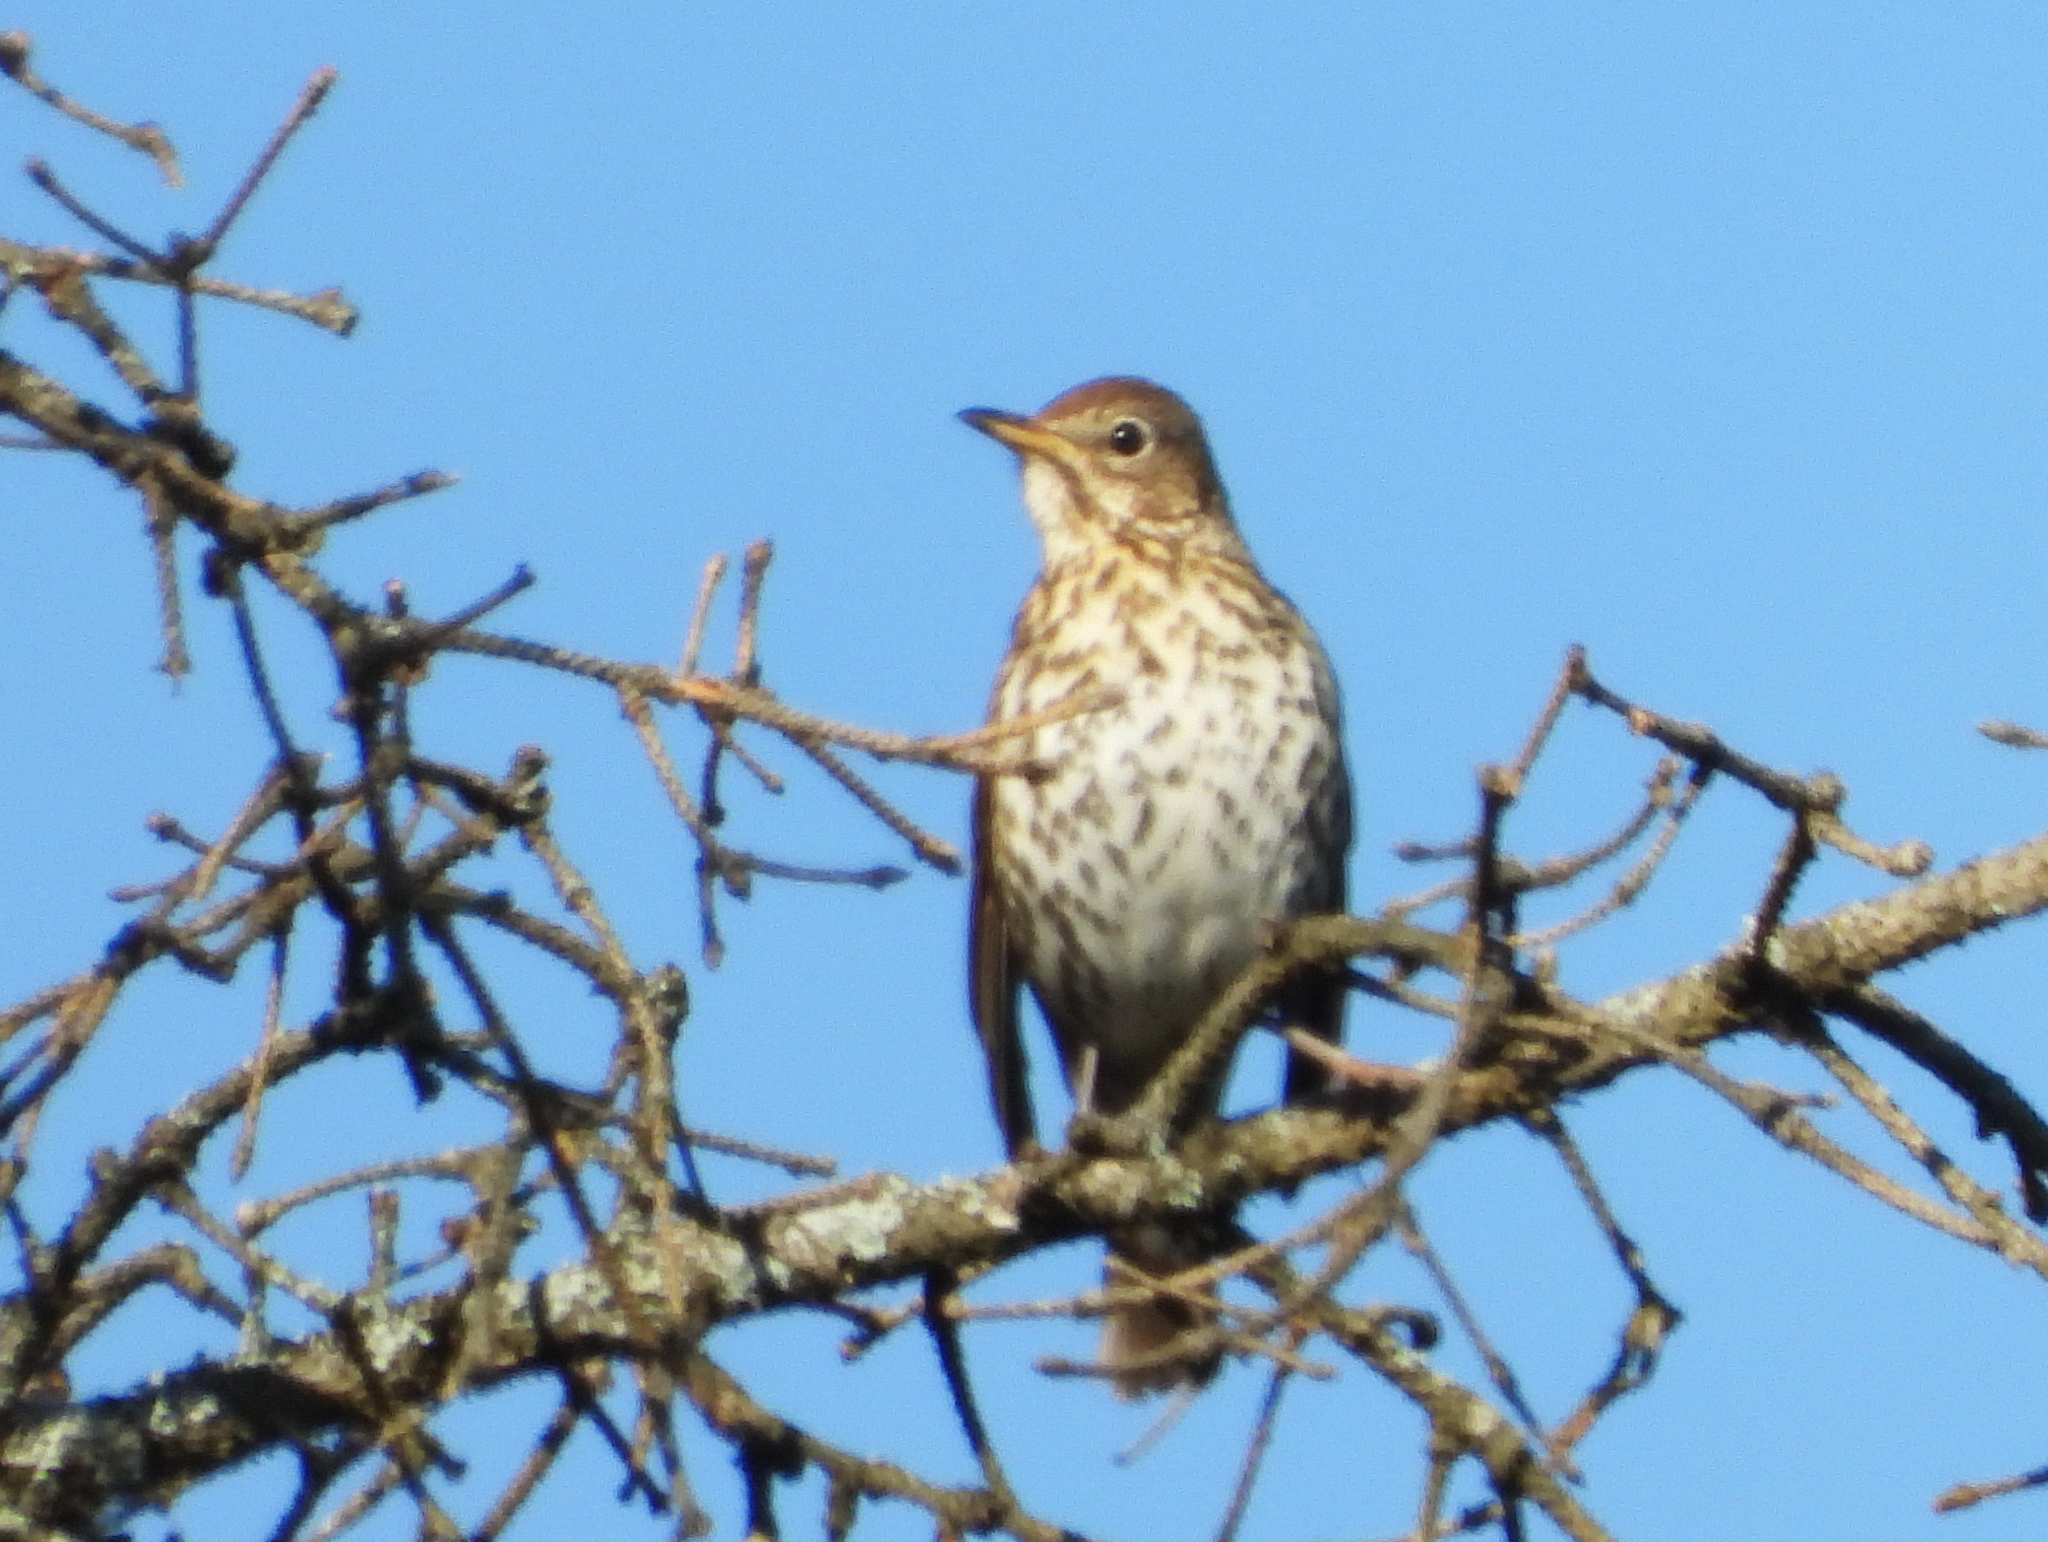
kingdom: Animalia
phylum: Chordata
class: Aves
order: Passeriformes
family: Turdidae
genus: Turdus
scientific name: Turdus philomelos
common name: Song thrush
